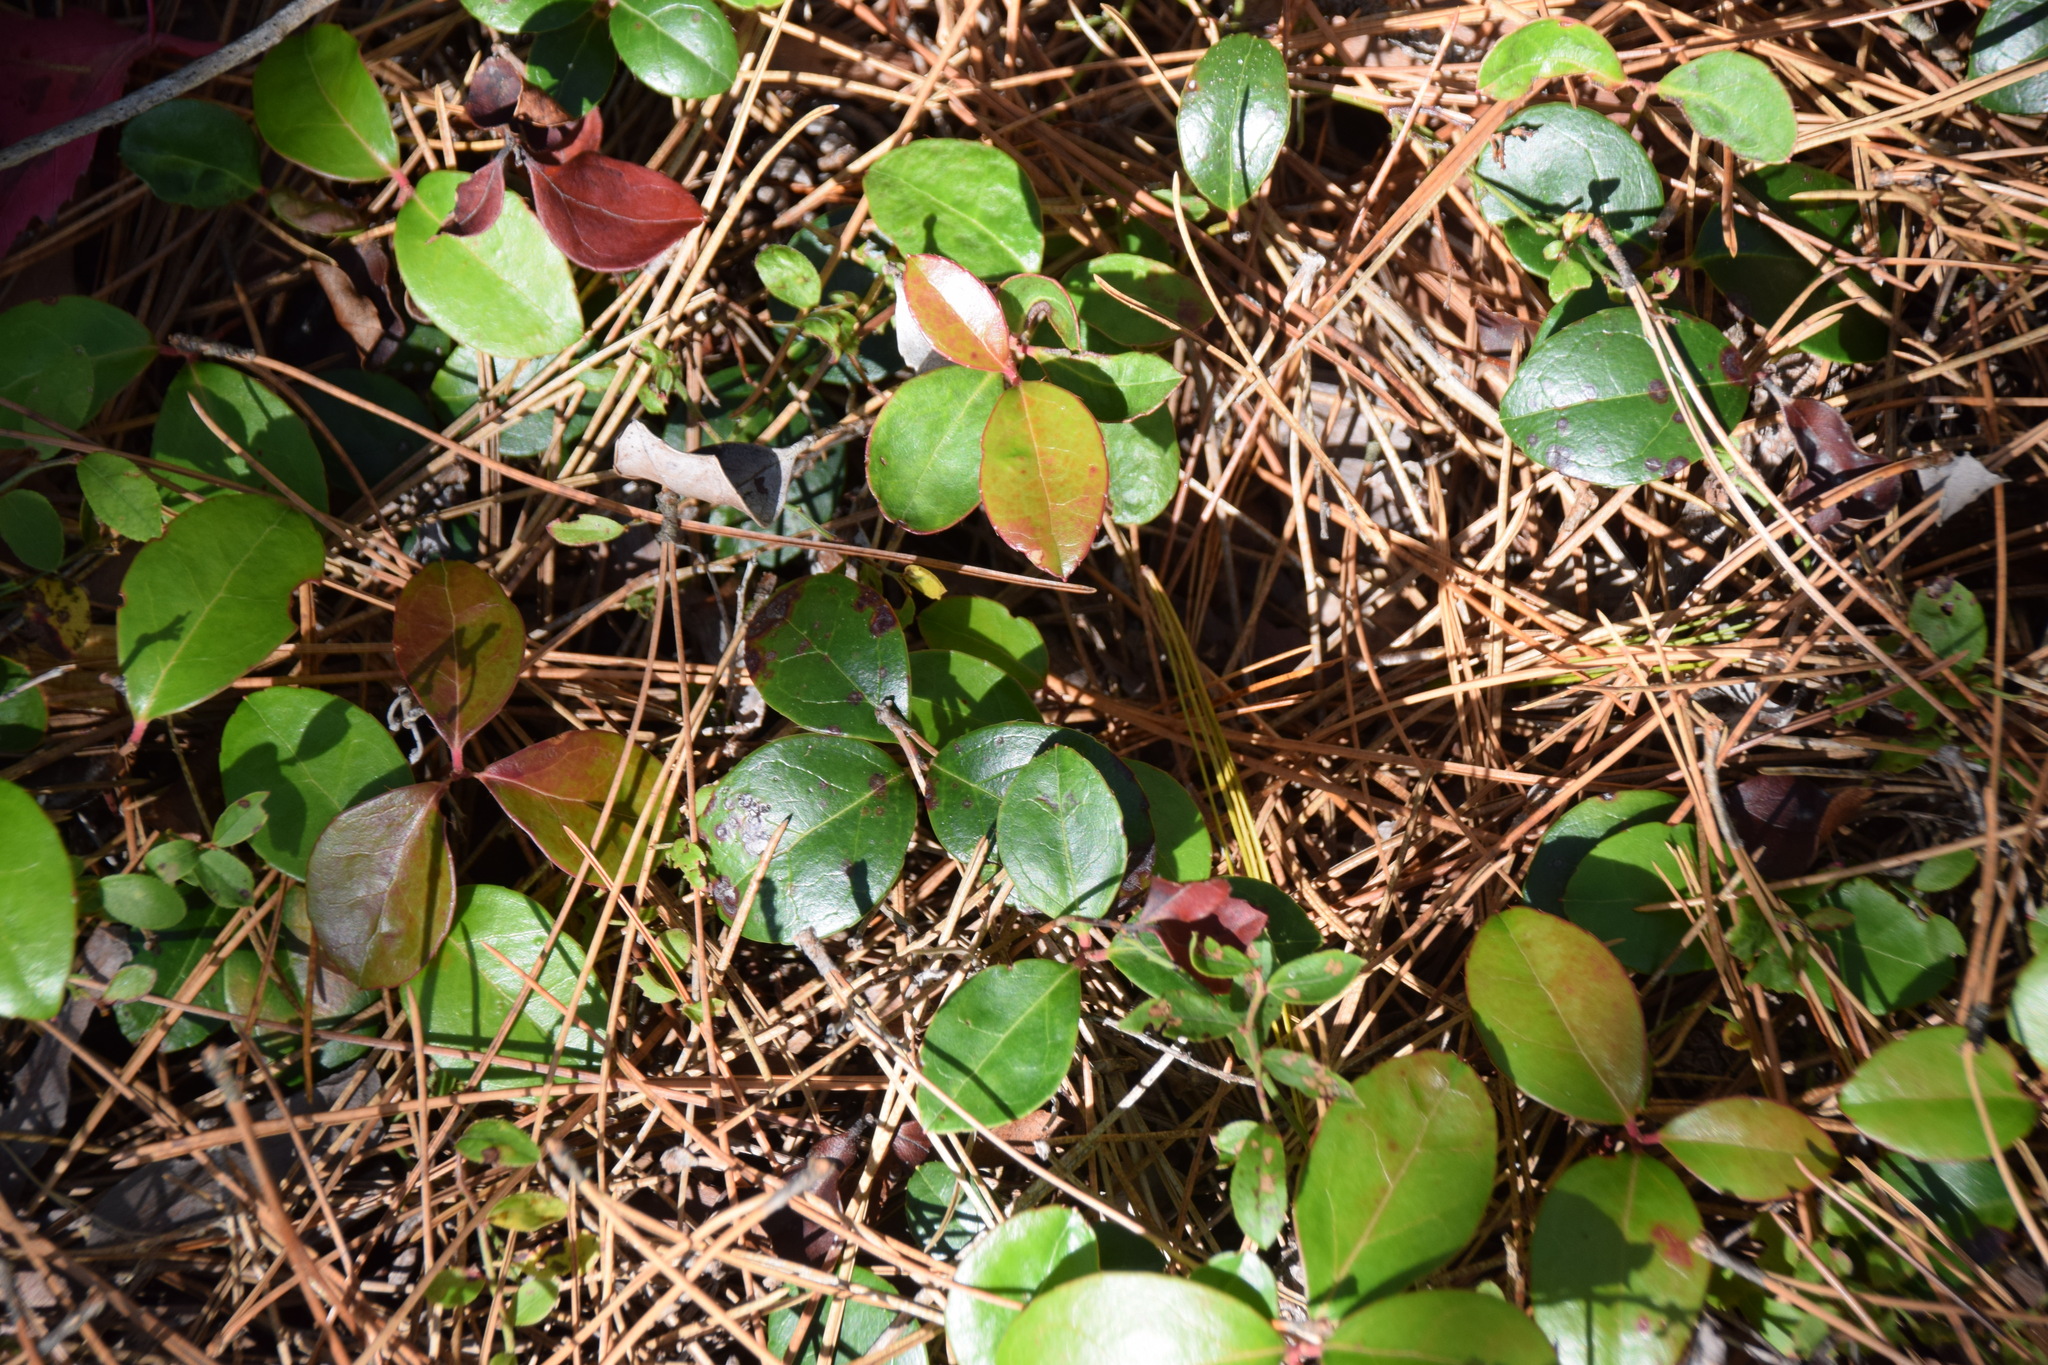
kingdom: Plantae
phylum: Tracheophyta
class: Magnoliopsida
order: Ericales
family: Ericaceae
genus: Gaultheria
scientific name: Gaultheria procumbens
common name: Checkerberry
